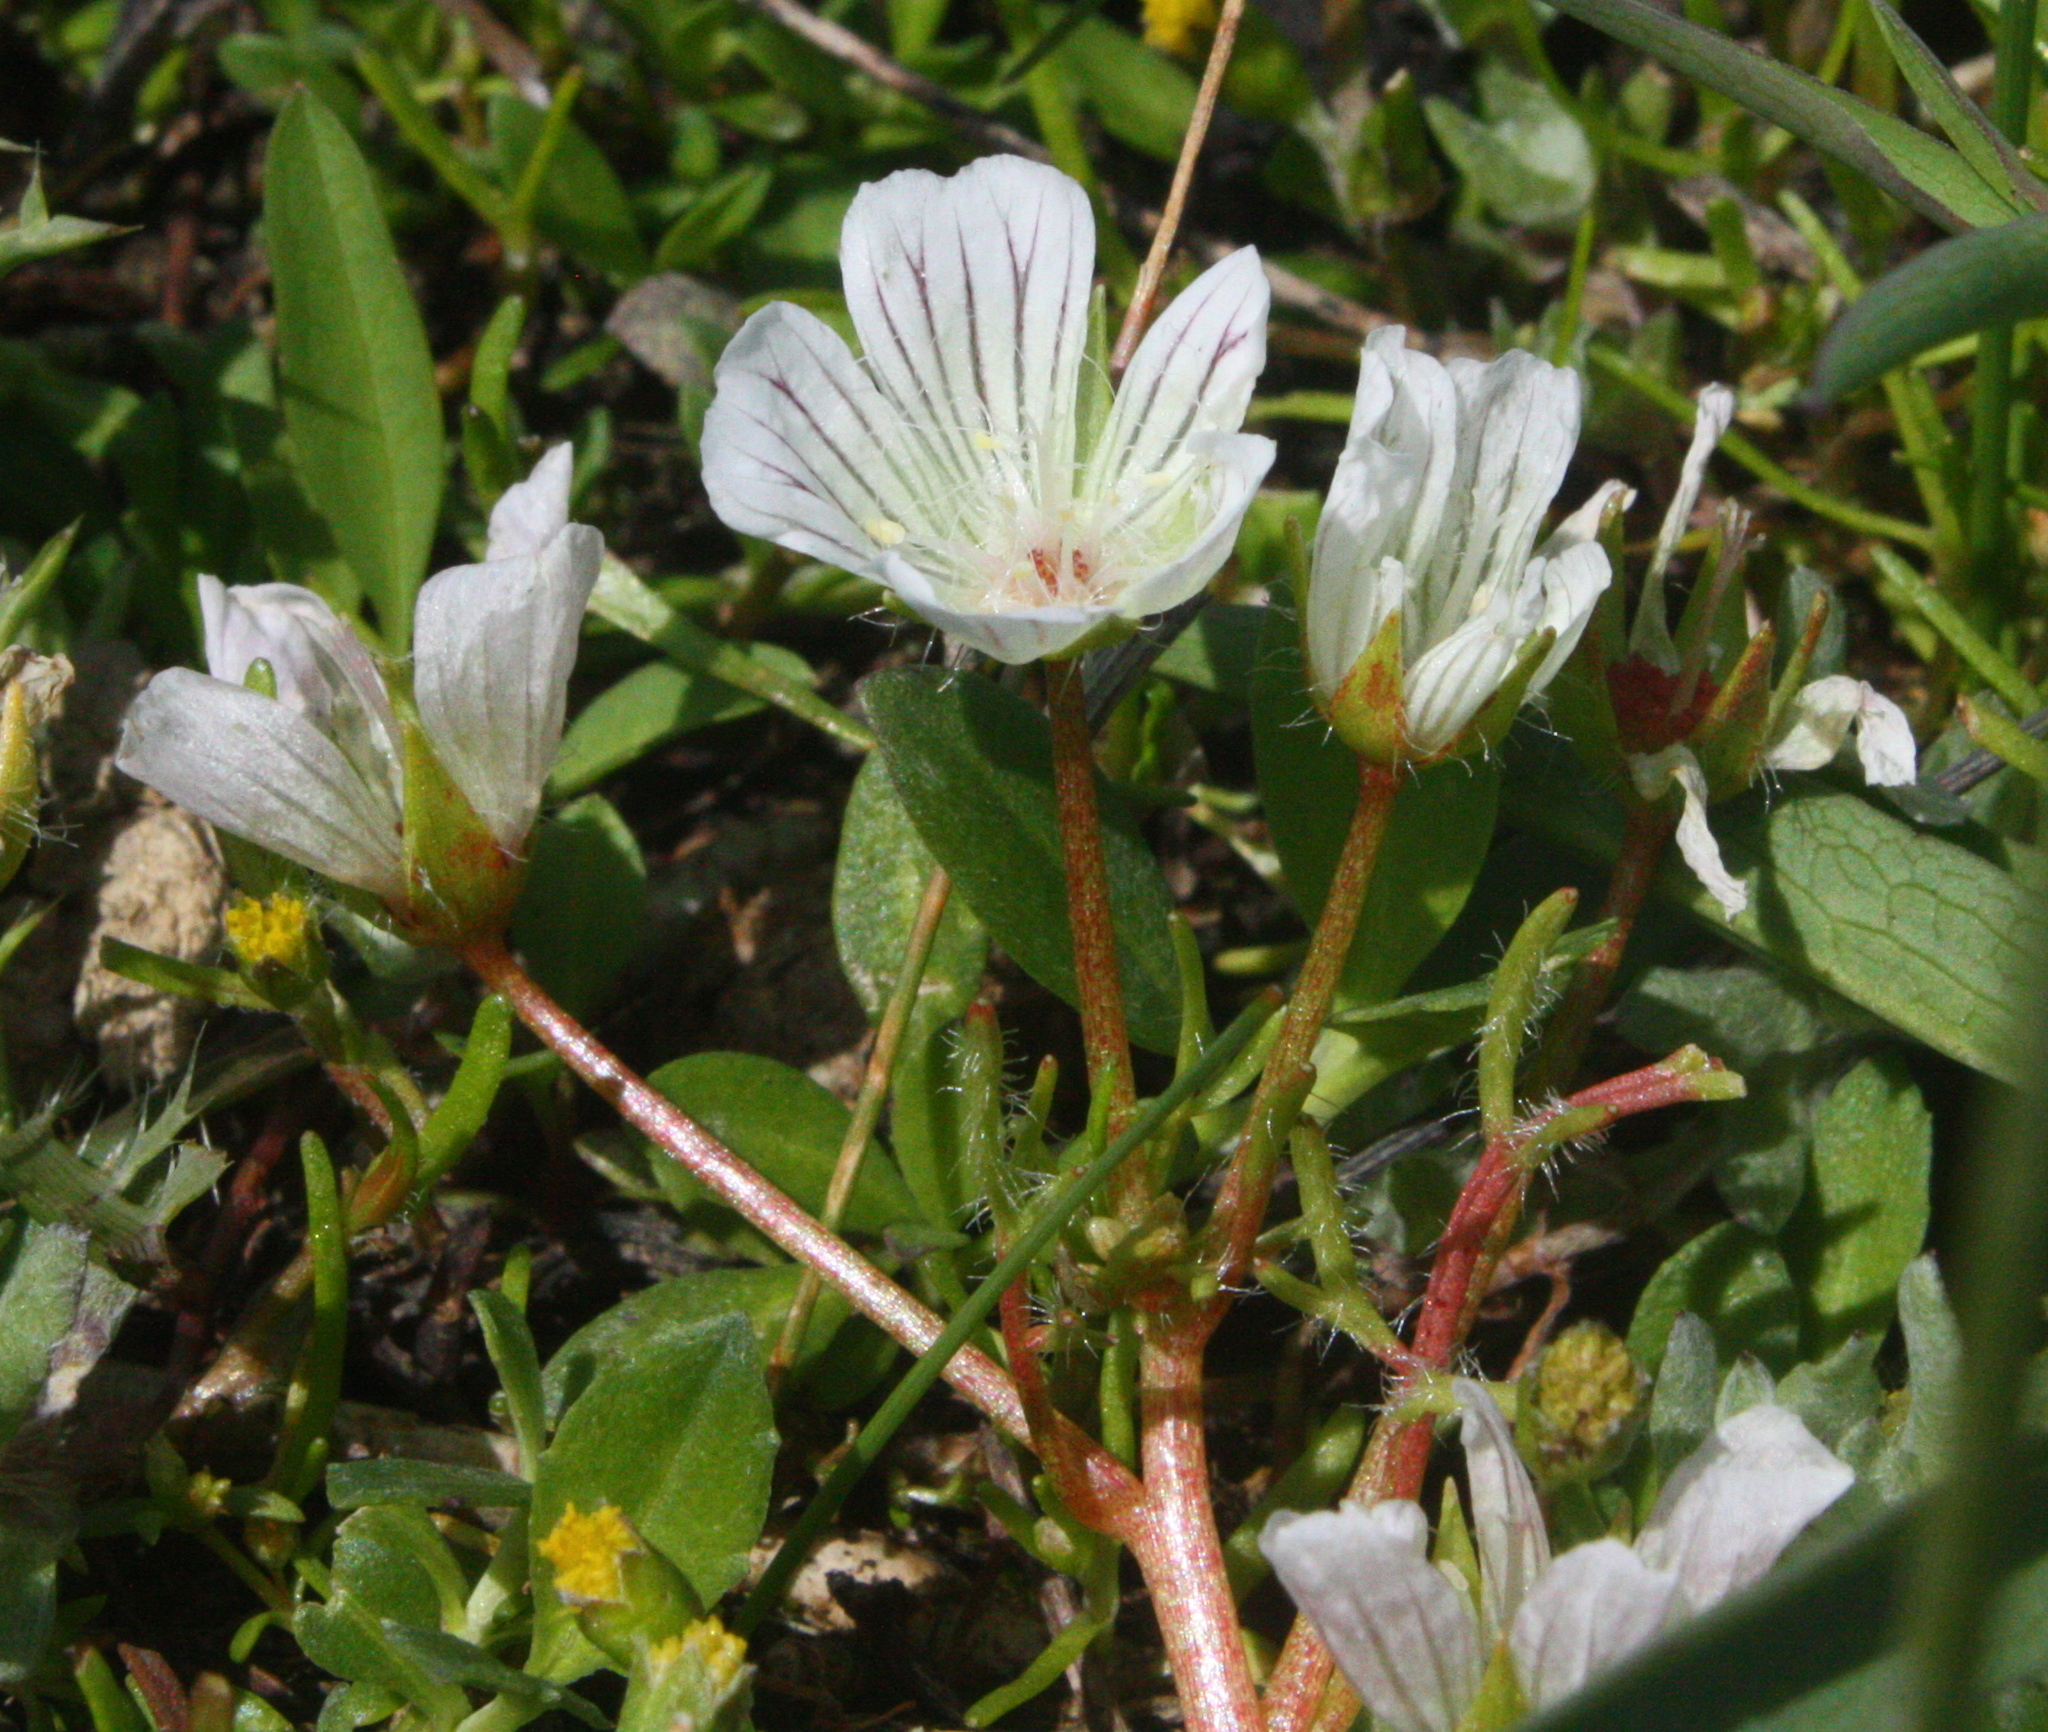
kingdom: Plantae
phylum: Tracheophyta
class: Magnoliopsida
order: Brassicales
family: Limnanthaceae
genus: Limnanthes
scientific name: Limnanthes douglasii
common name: Meadow-foam
